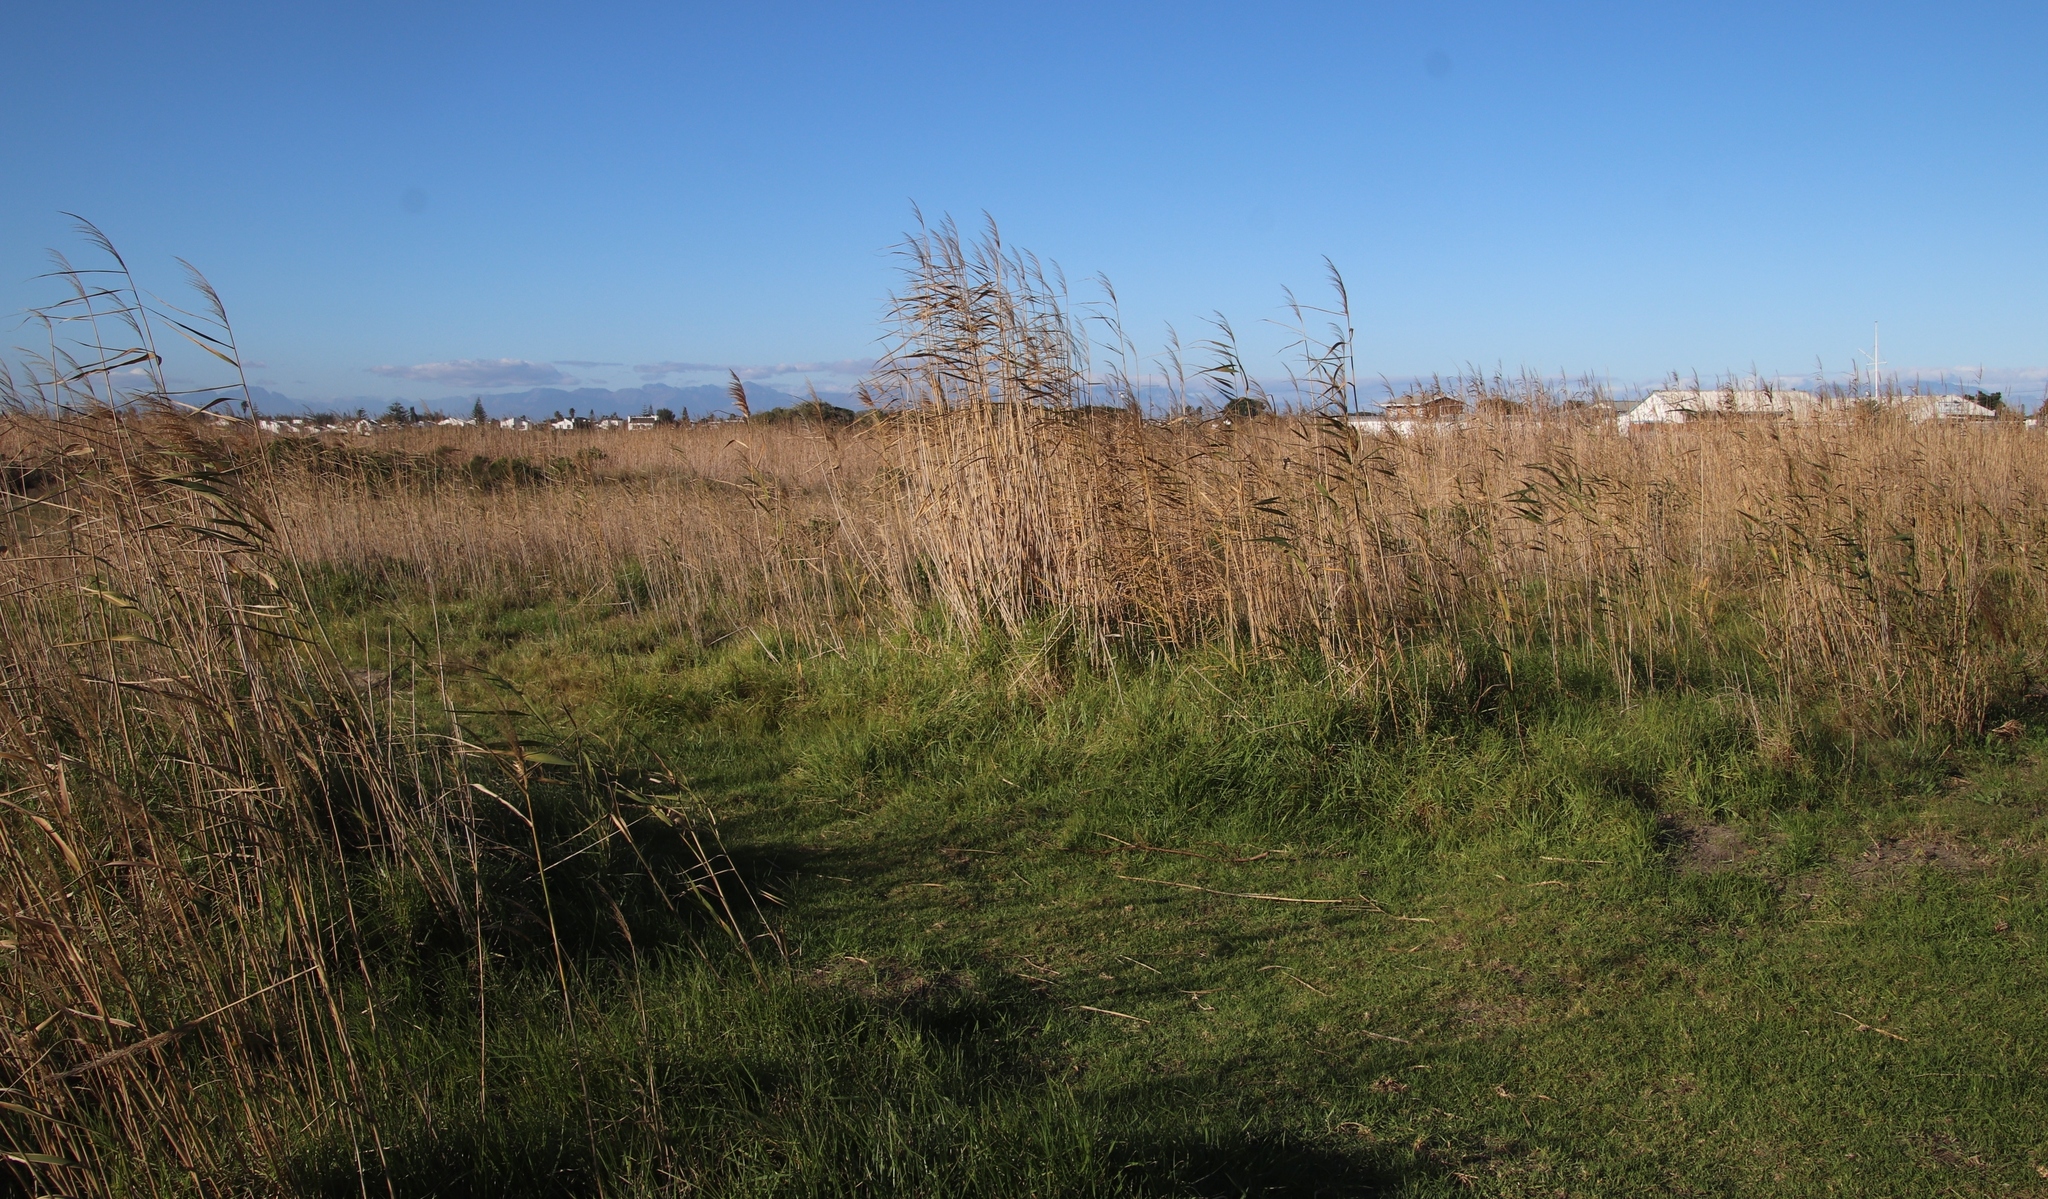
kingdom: Plantae
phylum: Tracheophyta
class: Liliopsida
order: Poales
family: Poaceae
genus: Phragmites
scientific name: Phragmites australis
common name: Common reed
